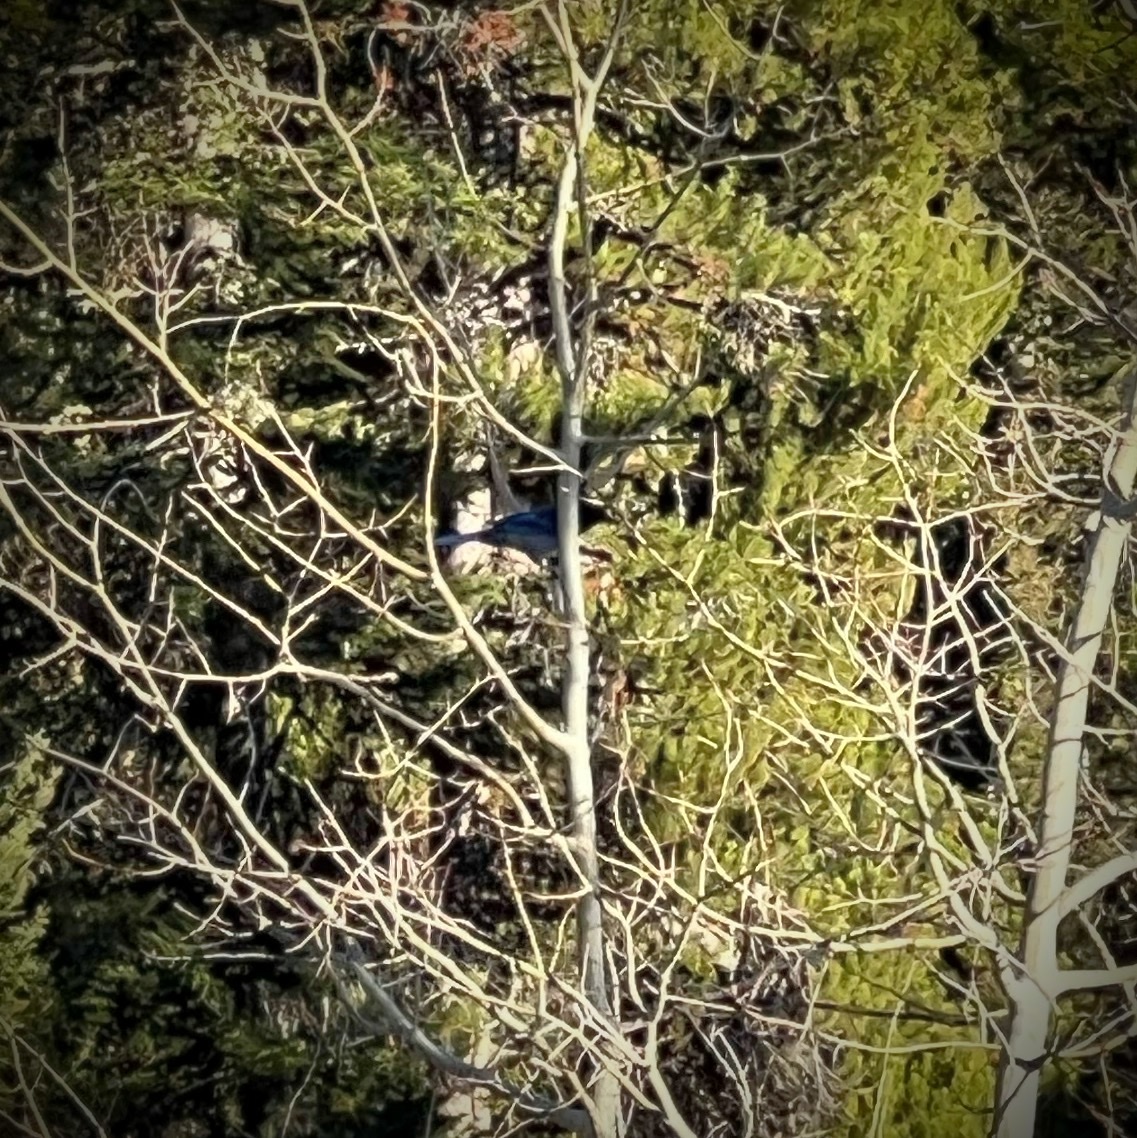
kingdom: Animalia
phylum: Chordata
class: Aves
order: Passeriformes
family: Corvidae
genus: Cyanocitta
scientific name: Cyanocitta stelleri
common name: Steller's jay
